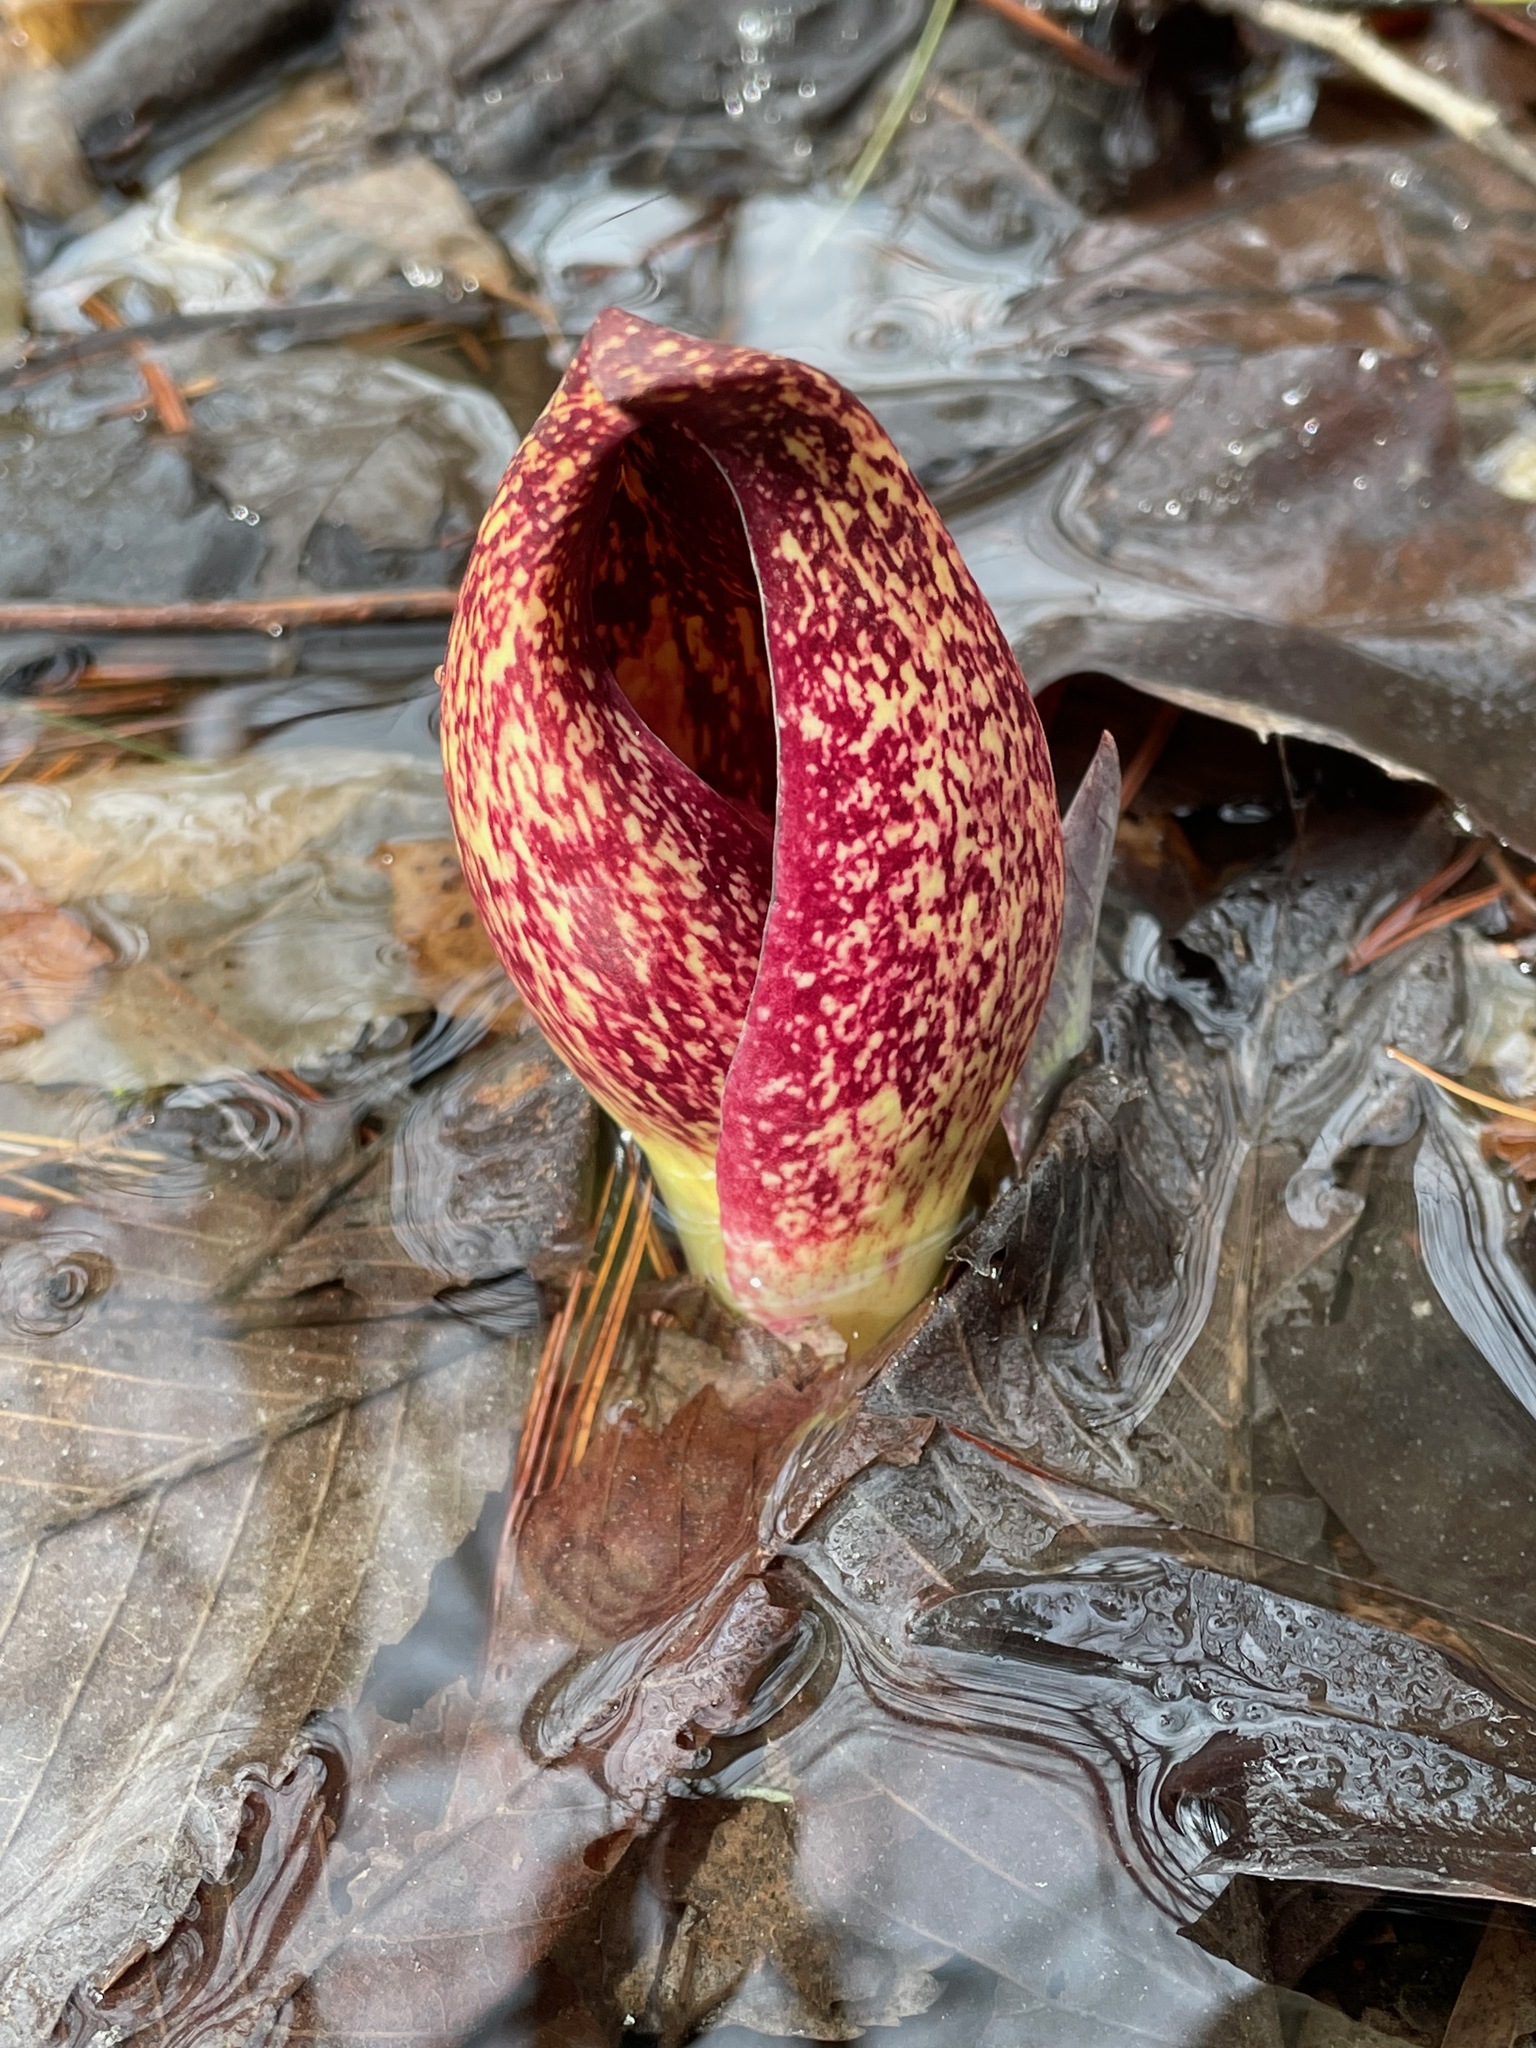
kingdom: Plantae
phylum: Tracheophyta
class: Liliopsida
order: Alismatales
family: Araceae
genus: Symplocarpus
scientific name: Symplocarpus foetidus
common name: Eastern skunk cabbage
